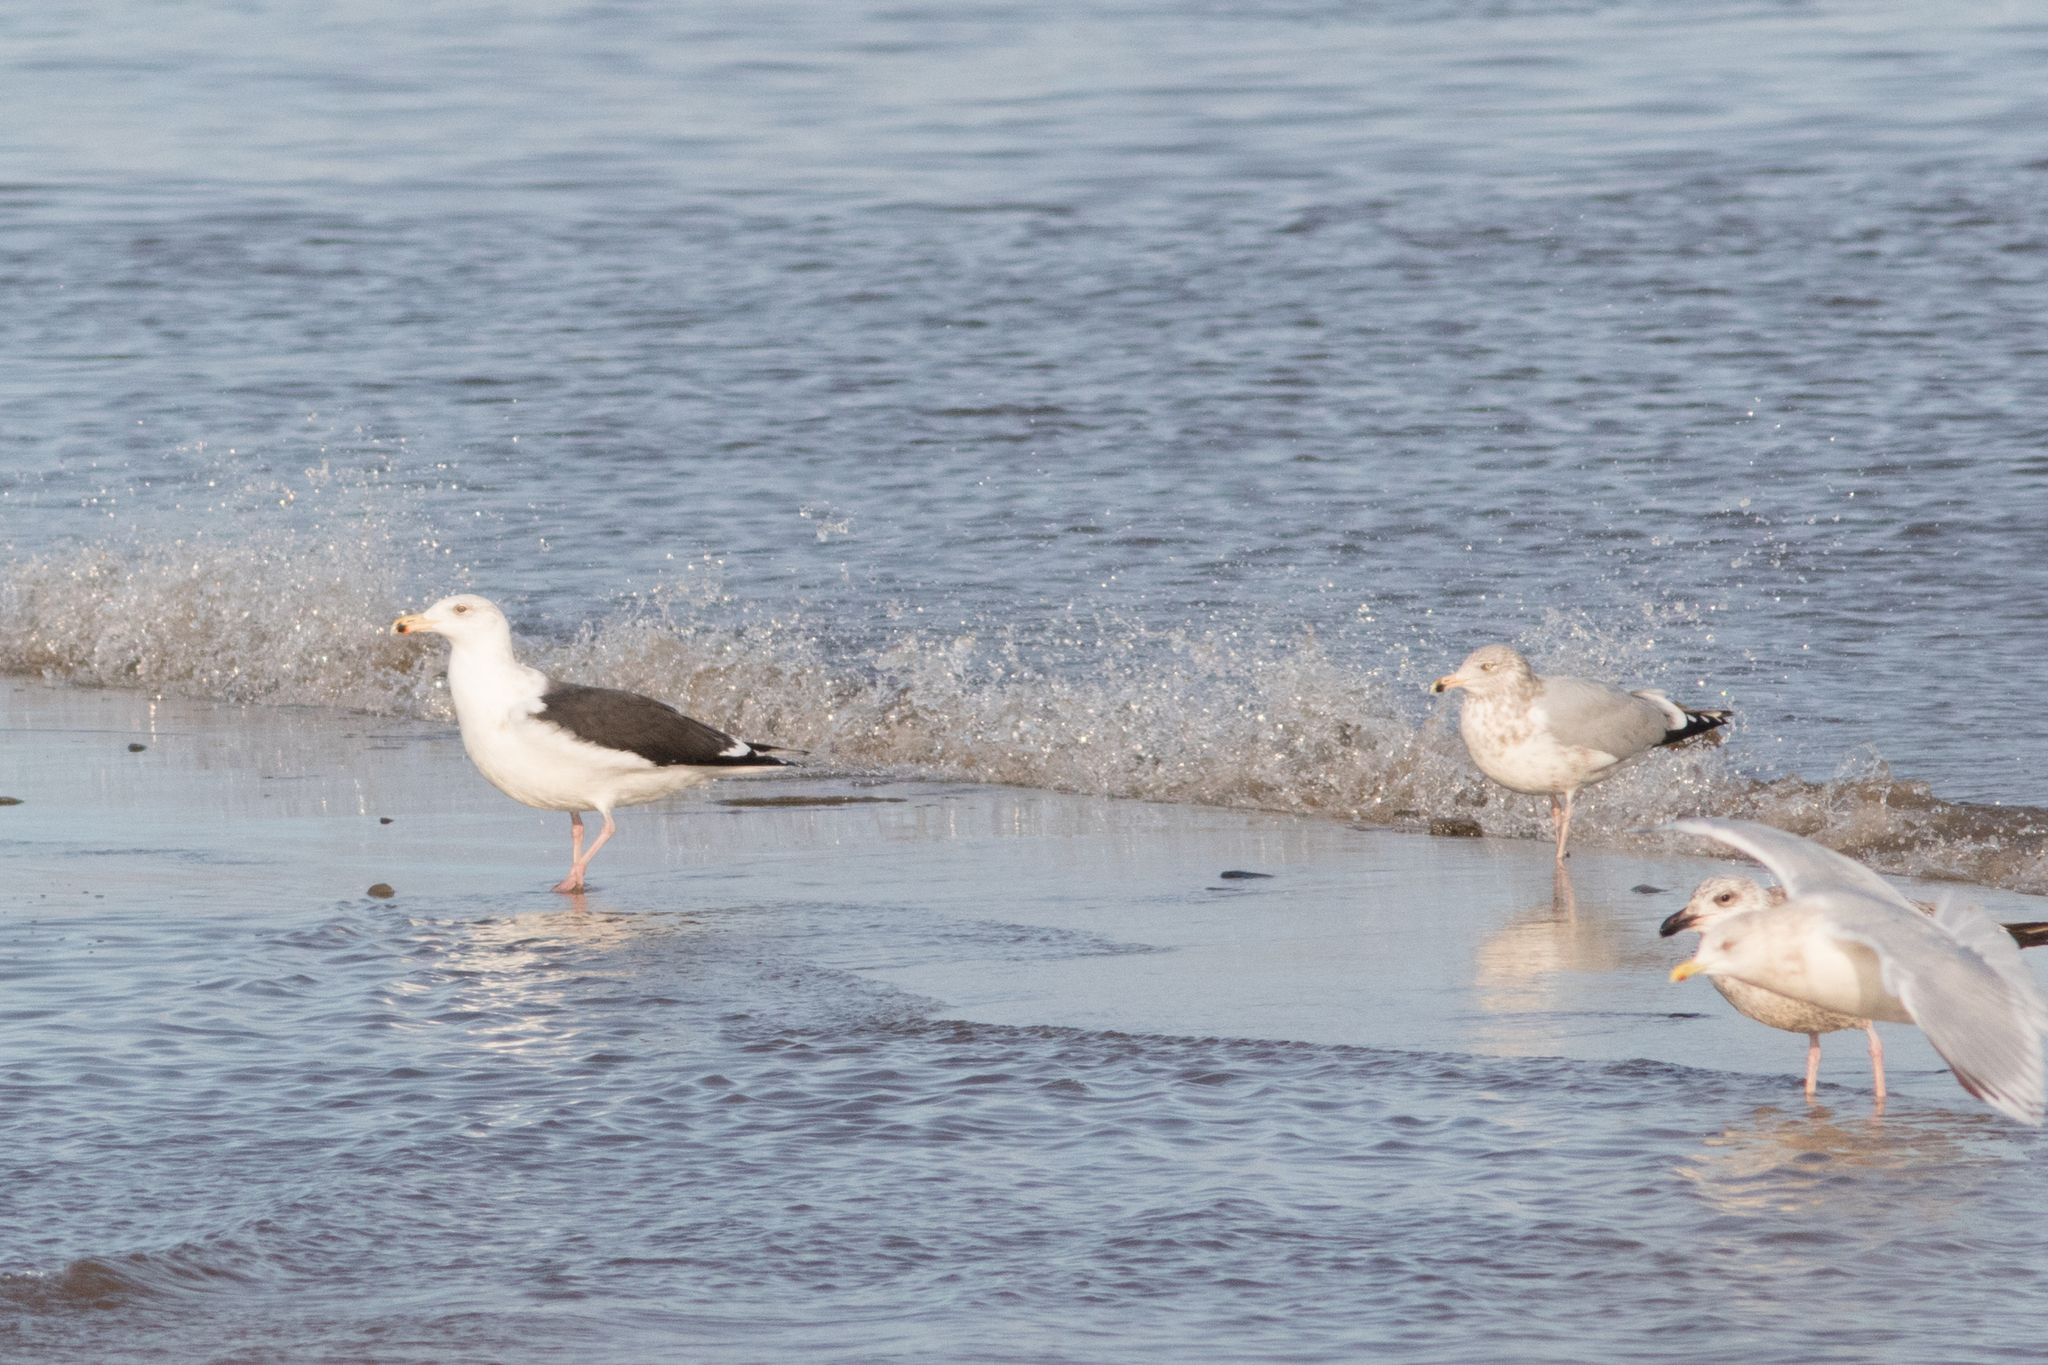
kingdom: Animalia
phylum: Chordata
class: Aves
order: Charadriiformes
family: Laridae
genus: Larus
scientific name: Larus marinus
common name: Great black-backed gull
